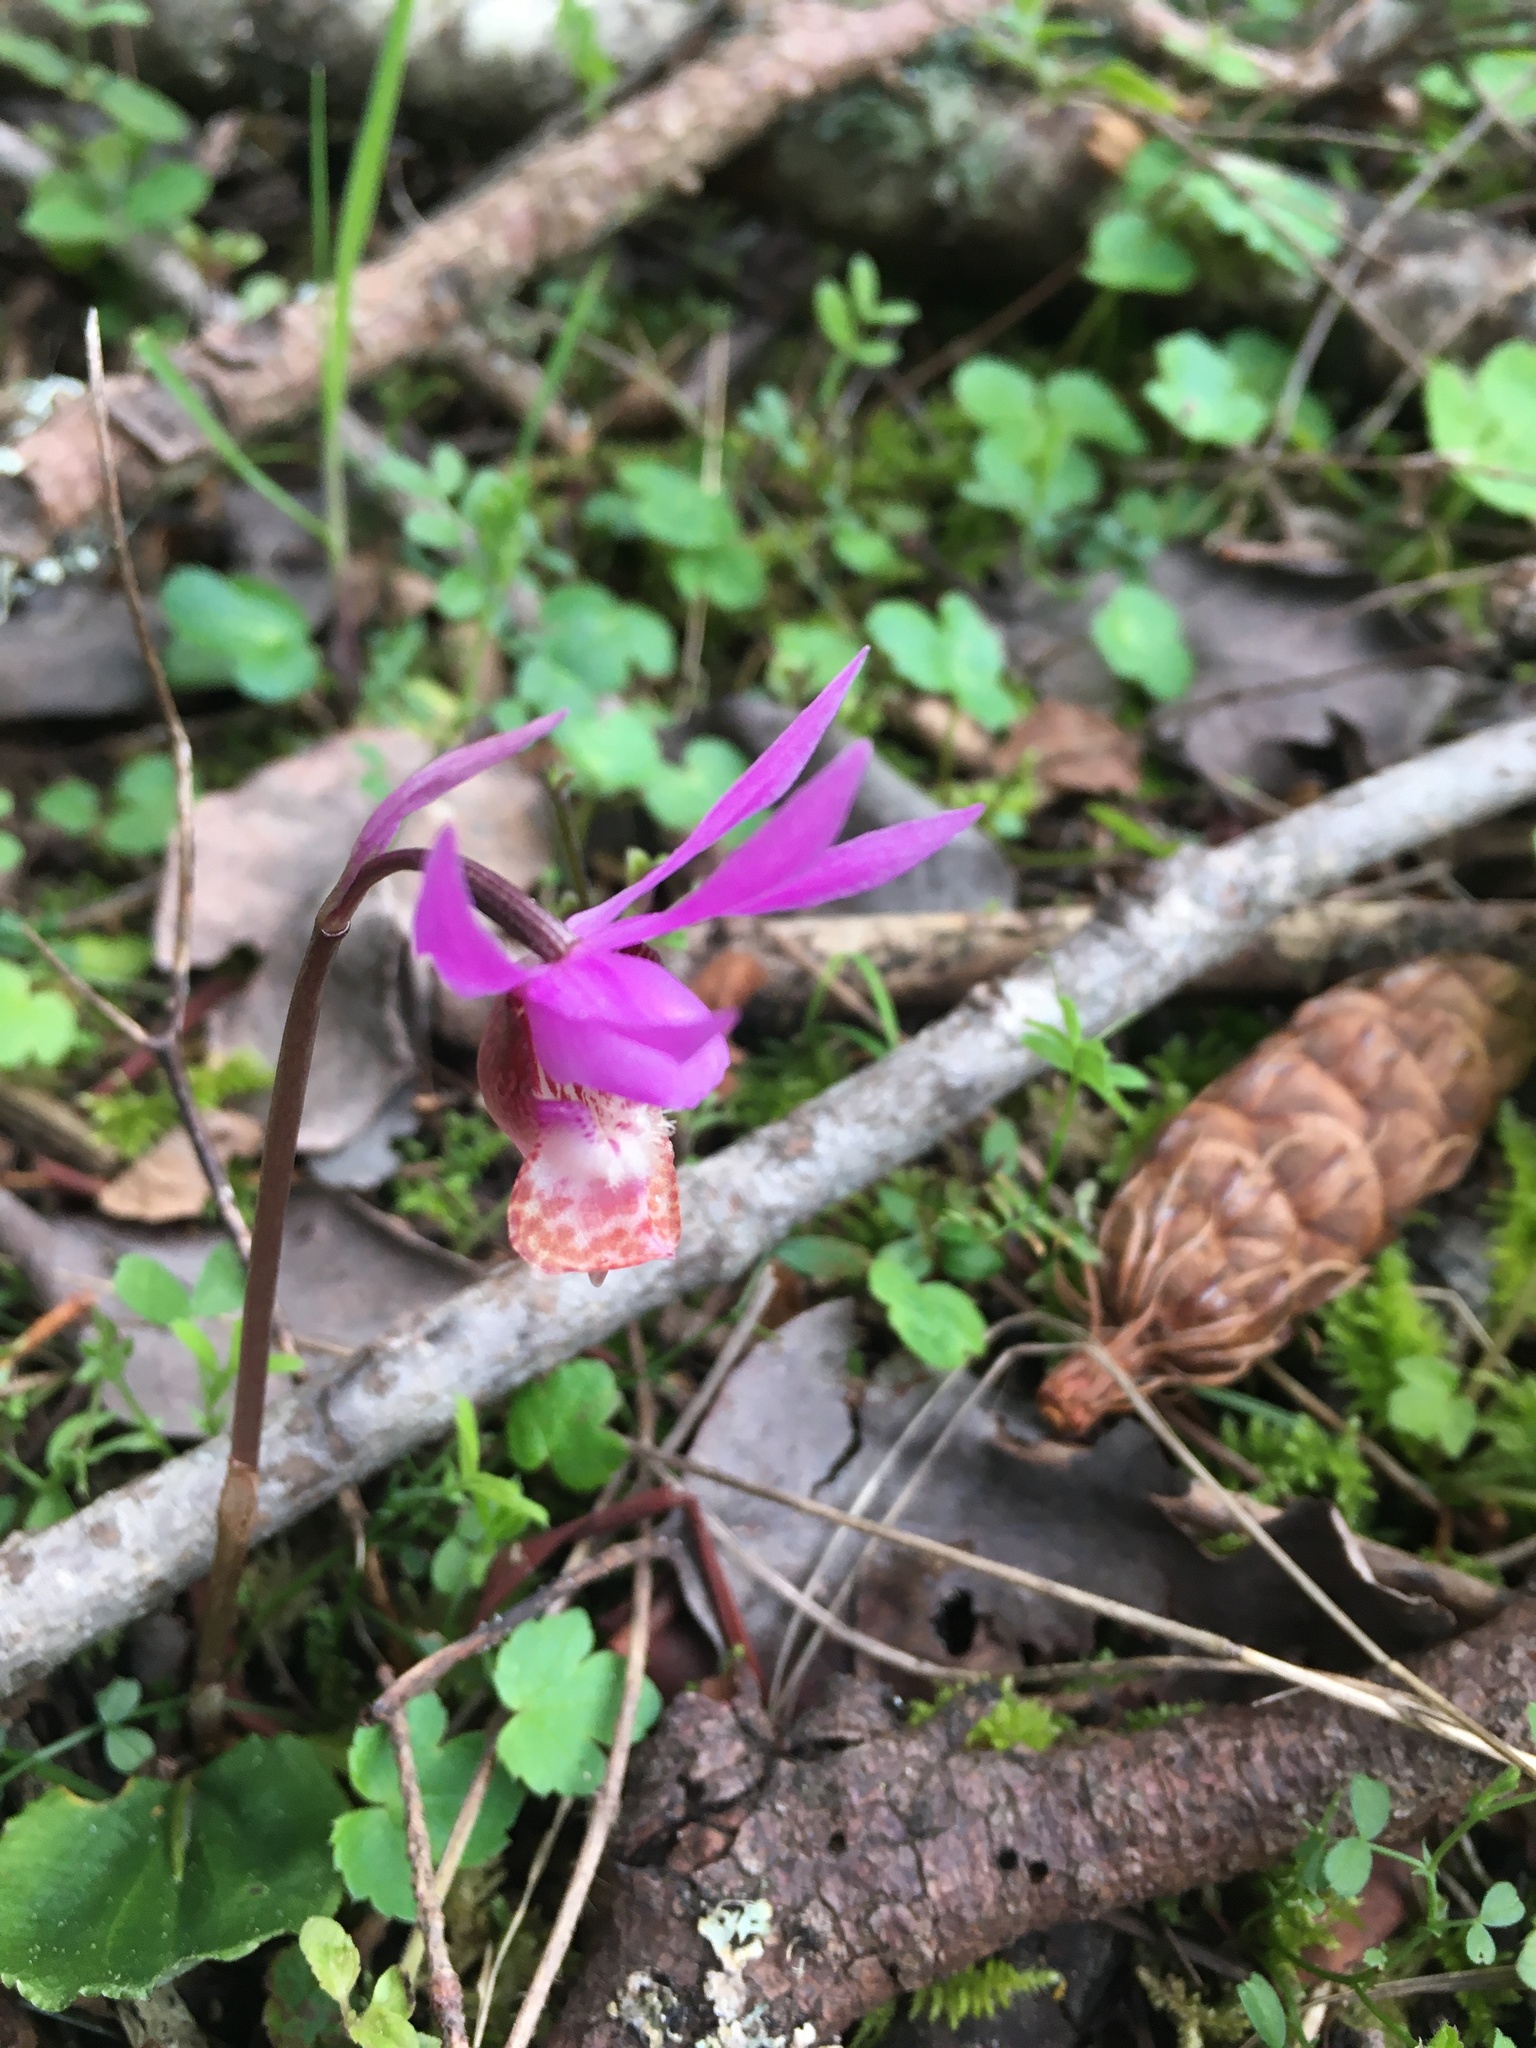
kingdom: Plantae
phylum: Tracheophyta
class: Liliopsida
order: Asparagales
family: Orchidaceae
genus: Calypso
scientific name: Calypso bulbosa
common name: Calypso
